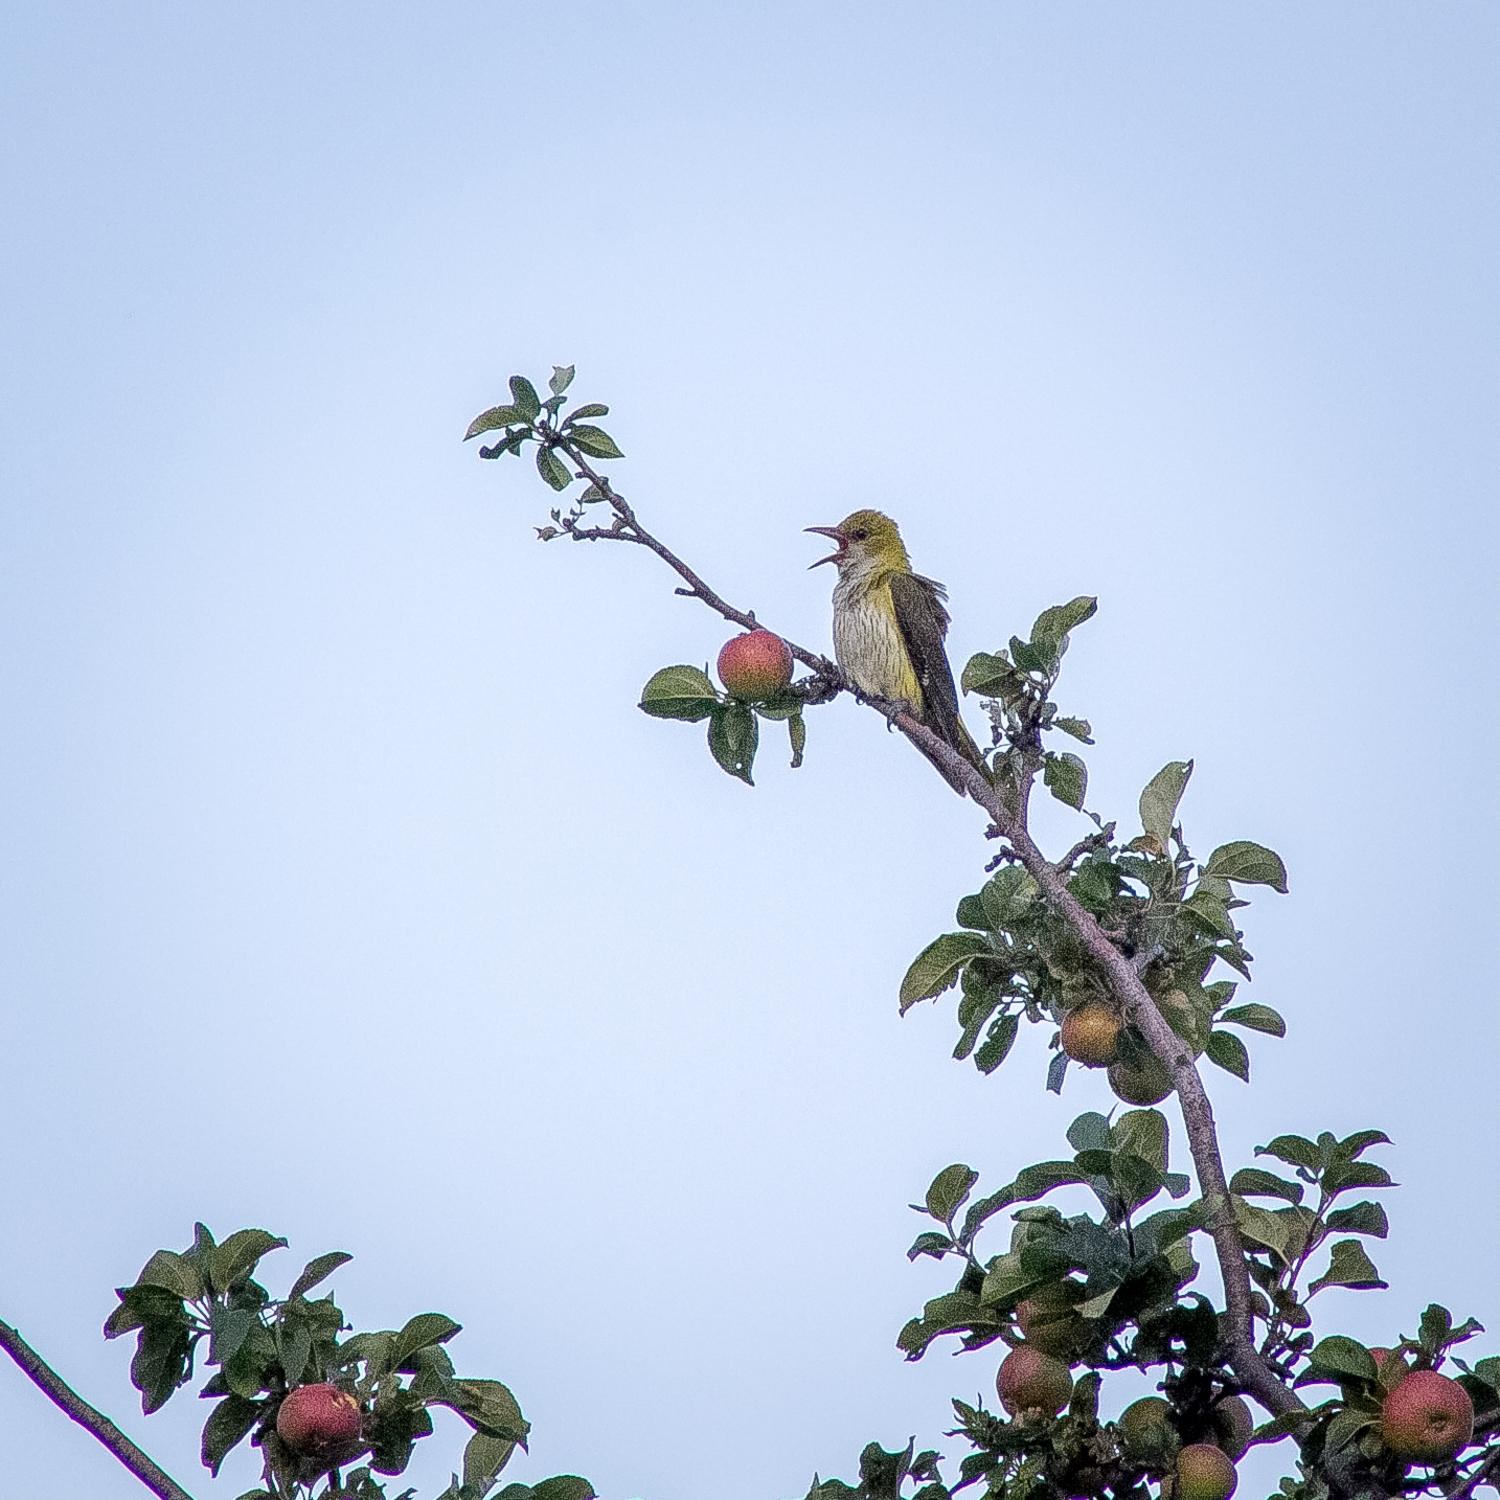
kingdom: Animalia
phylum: Chordata
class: Aves
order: Passeriformes
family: Oriolidae
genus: Oriolus
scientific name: Oriolus oriolus
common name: Eurasian golden oriole
